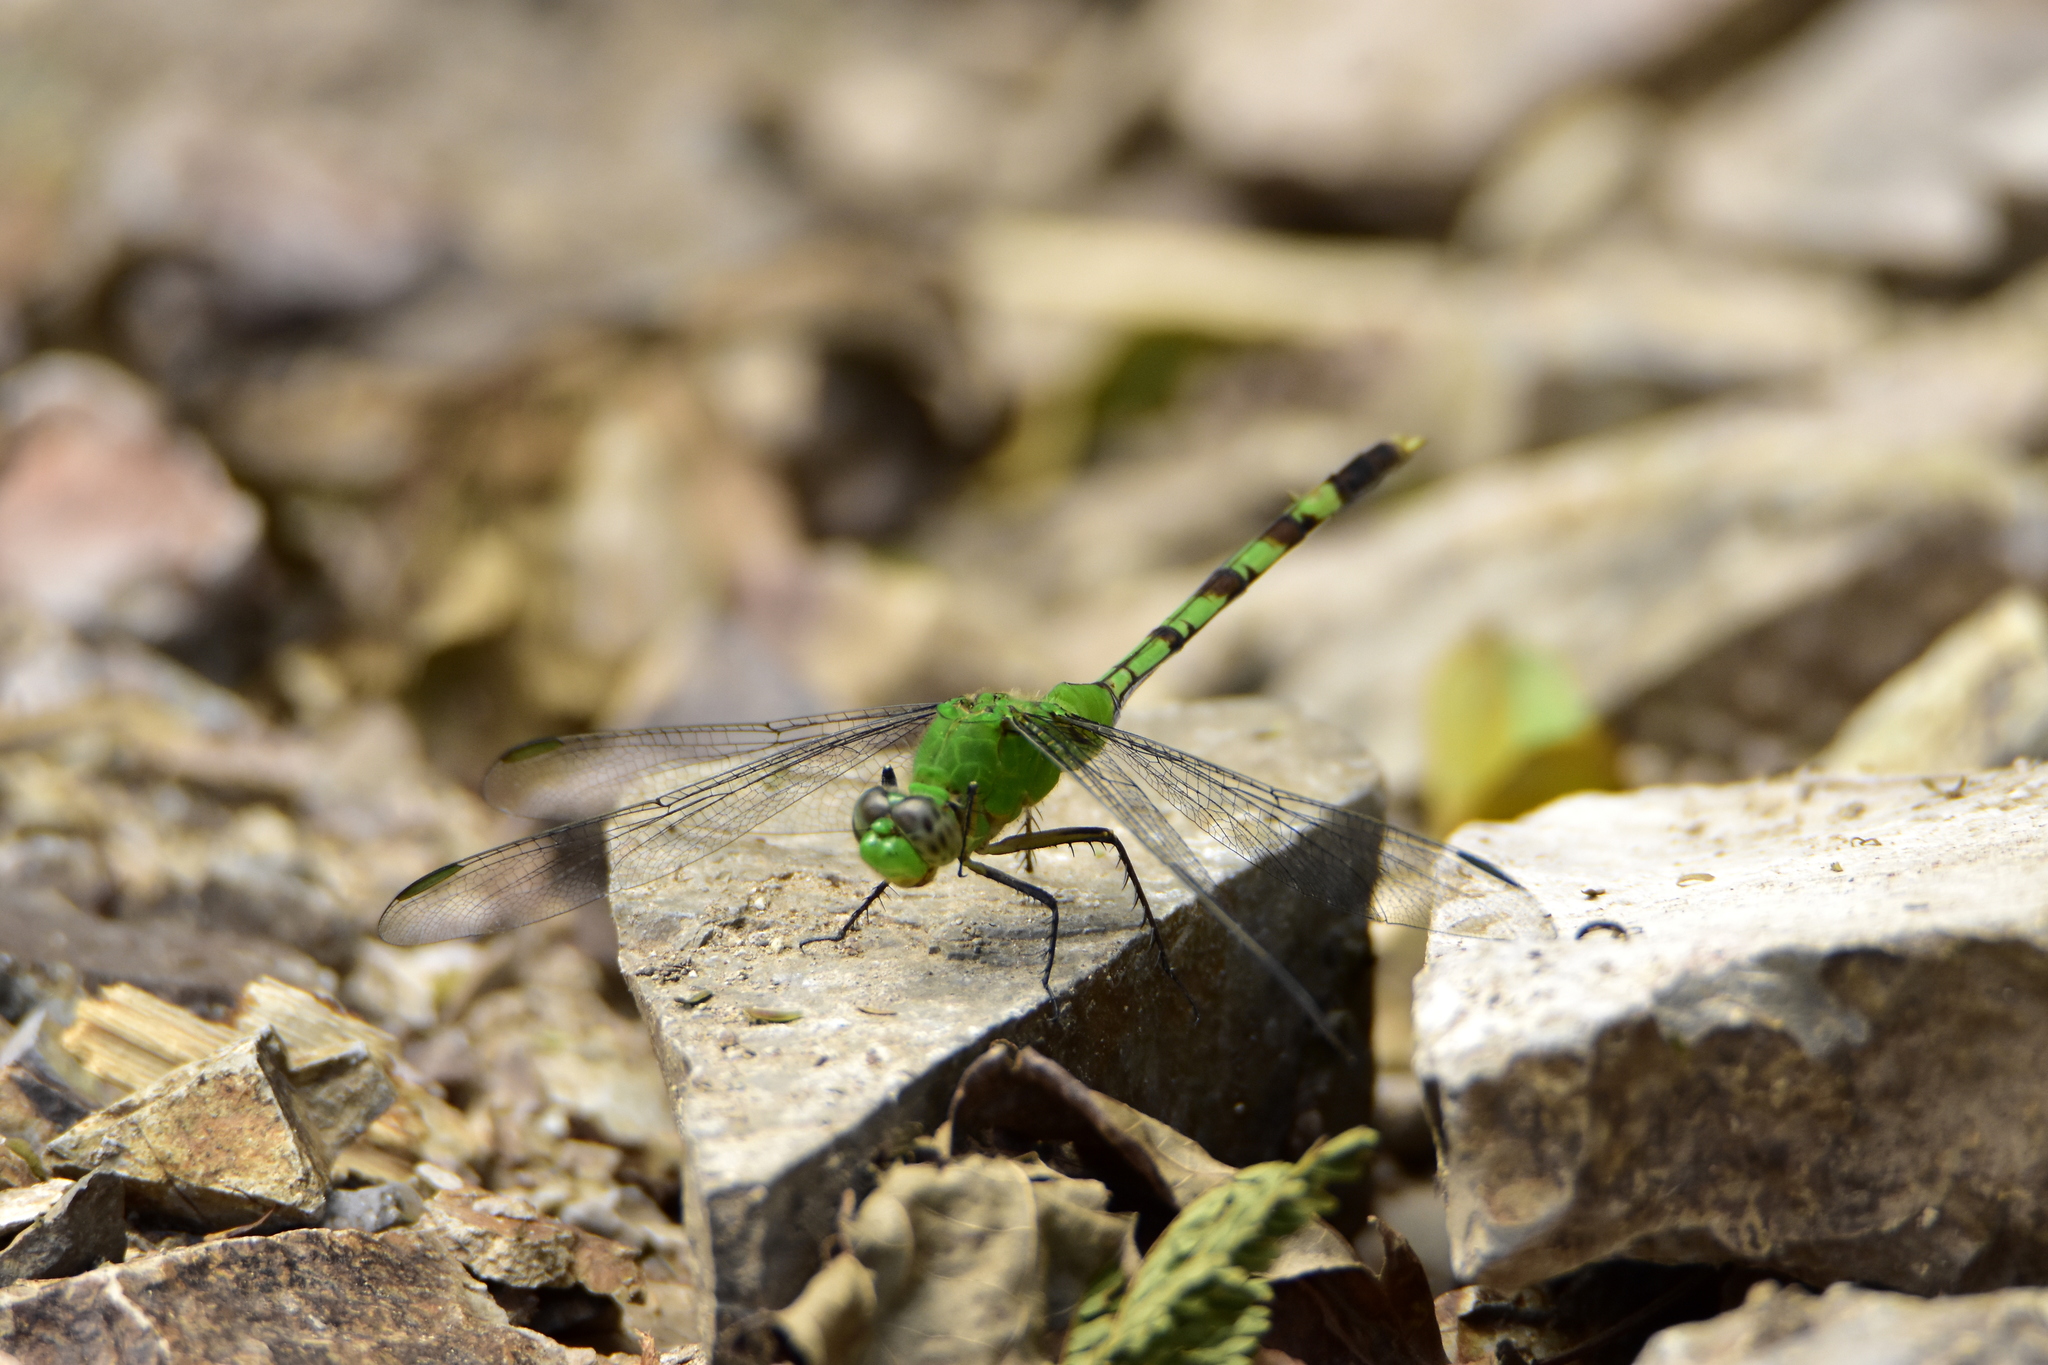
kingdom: Animalia
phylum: Arthropoda
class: Insecta
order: Odonata
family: Libellulidae
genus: Erythemis
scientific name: Erythemis vesiculosa
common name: Great pondhawk
